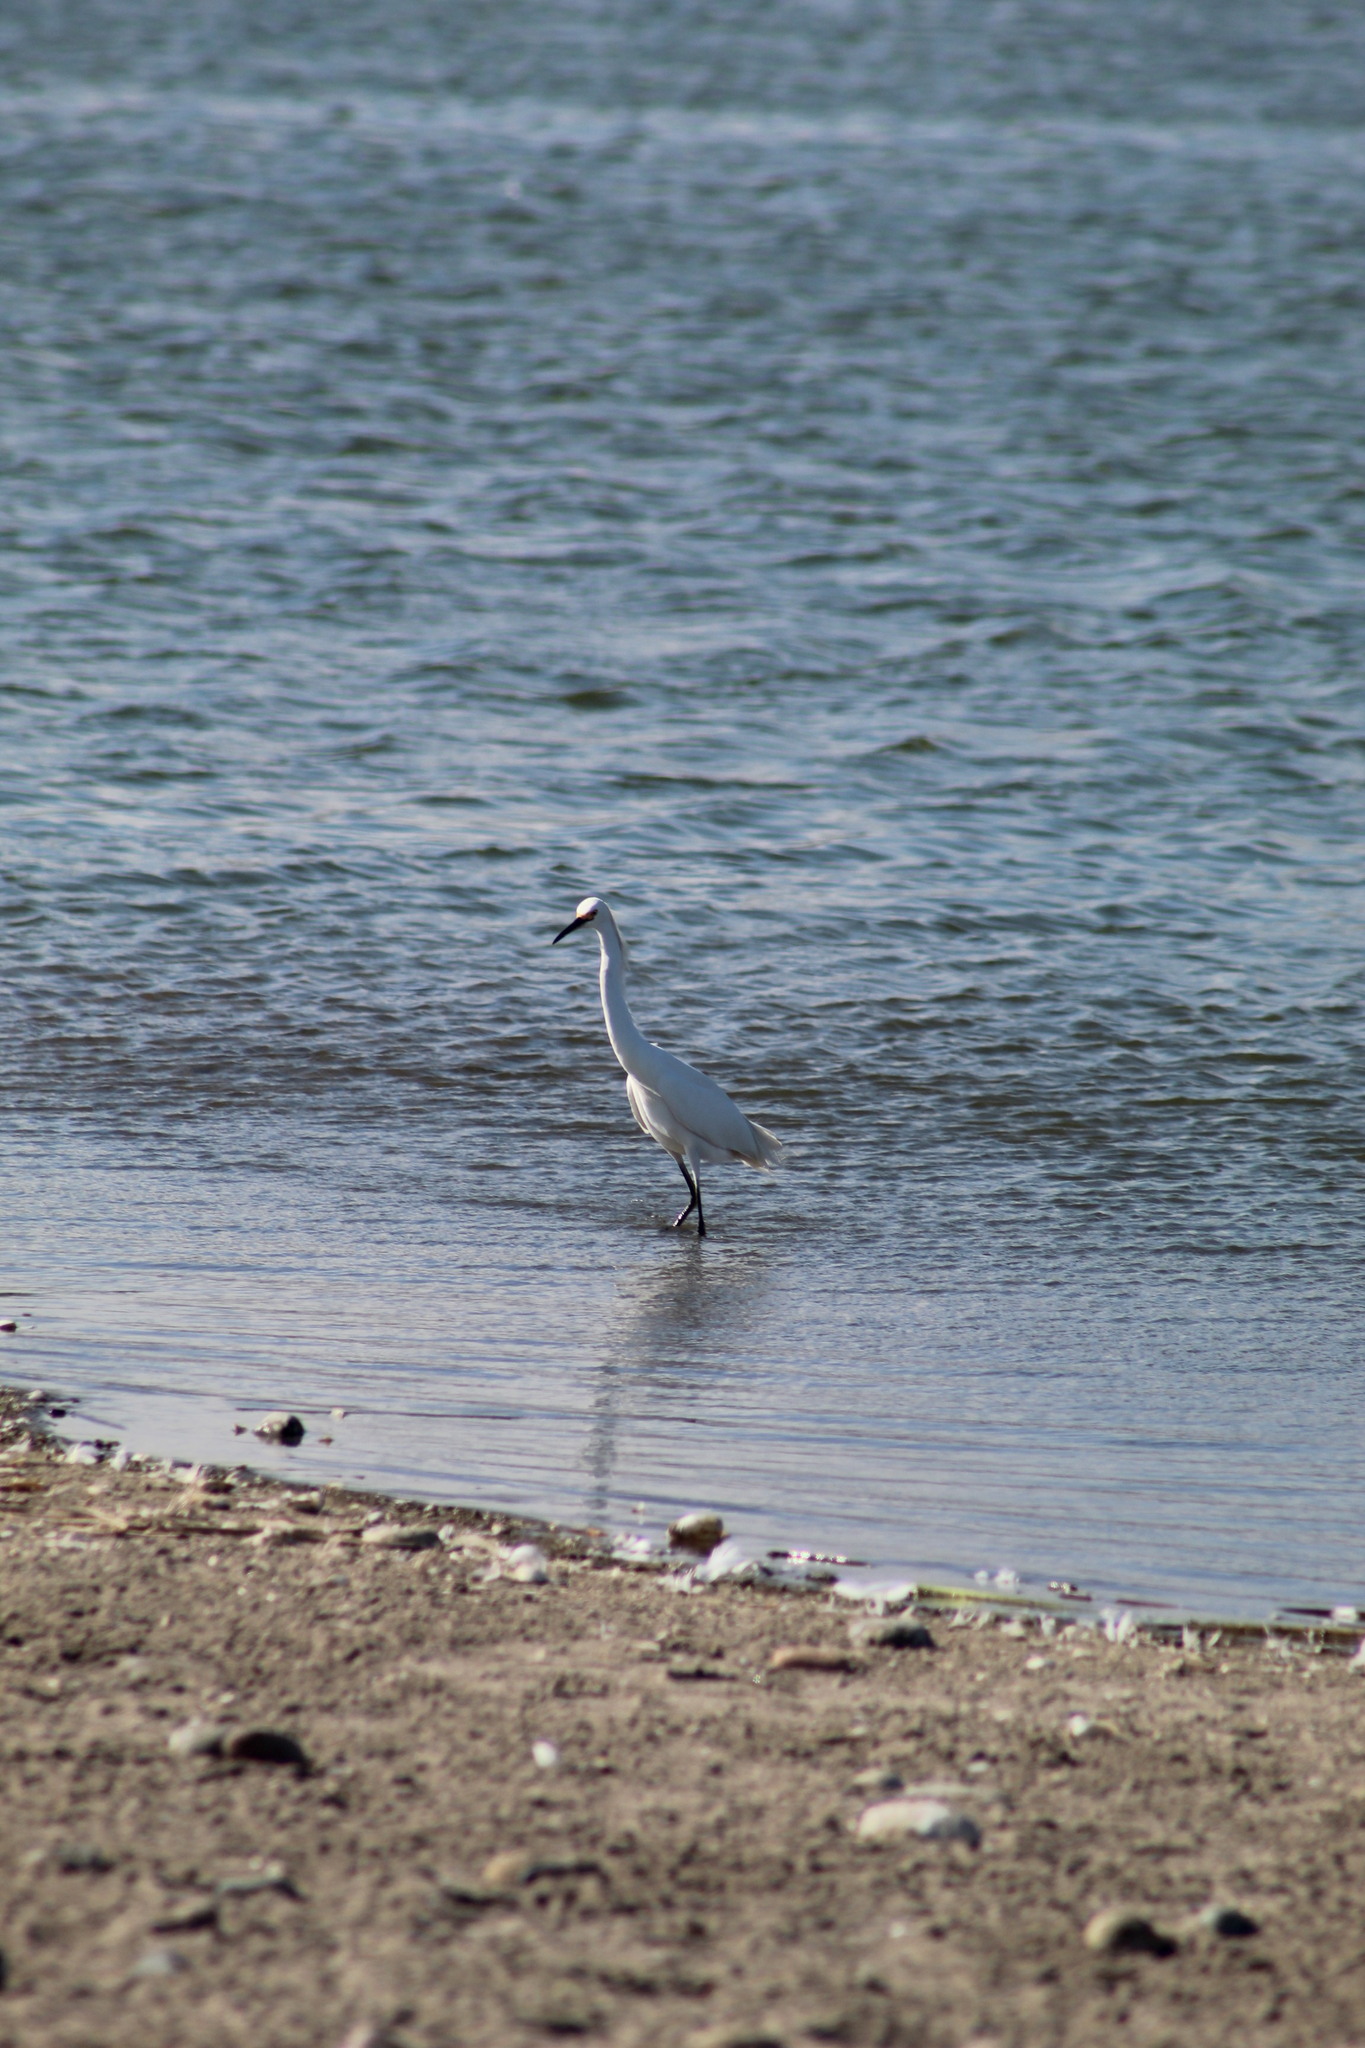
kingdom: Animalia
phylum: Chordata
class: Aves
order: Pelecaniformes
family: Ardeidae
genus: Egretta
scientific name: Egretta thula
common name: Snowy egret
